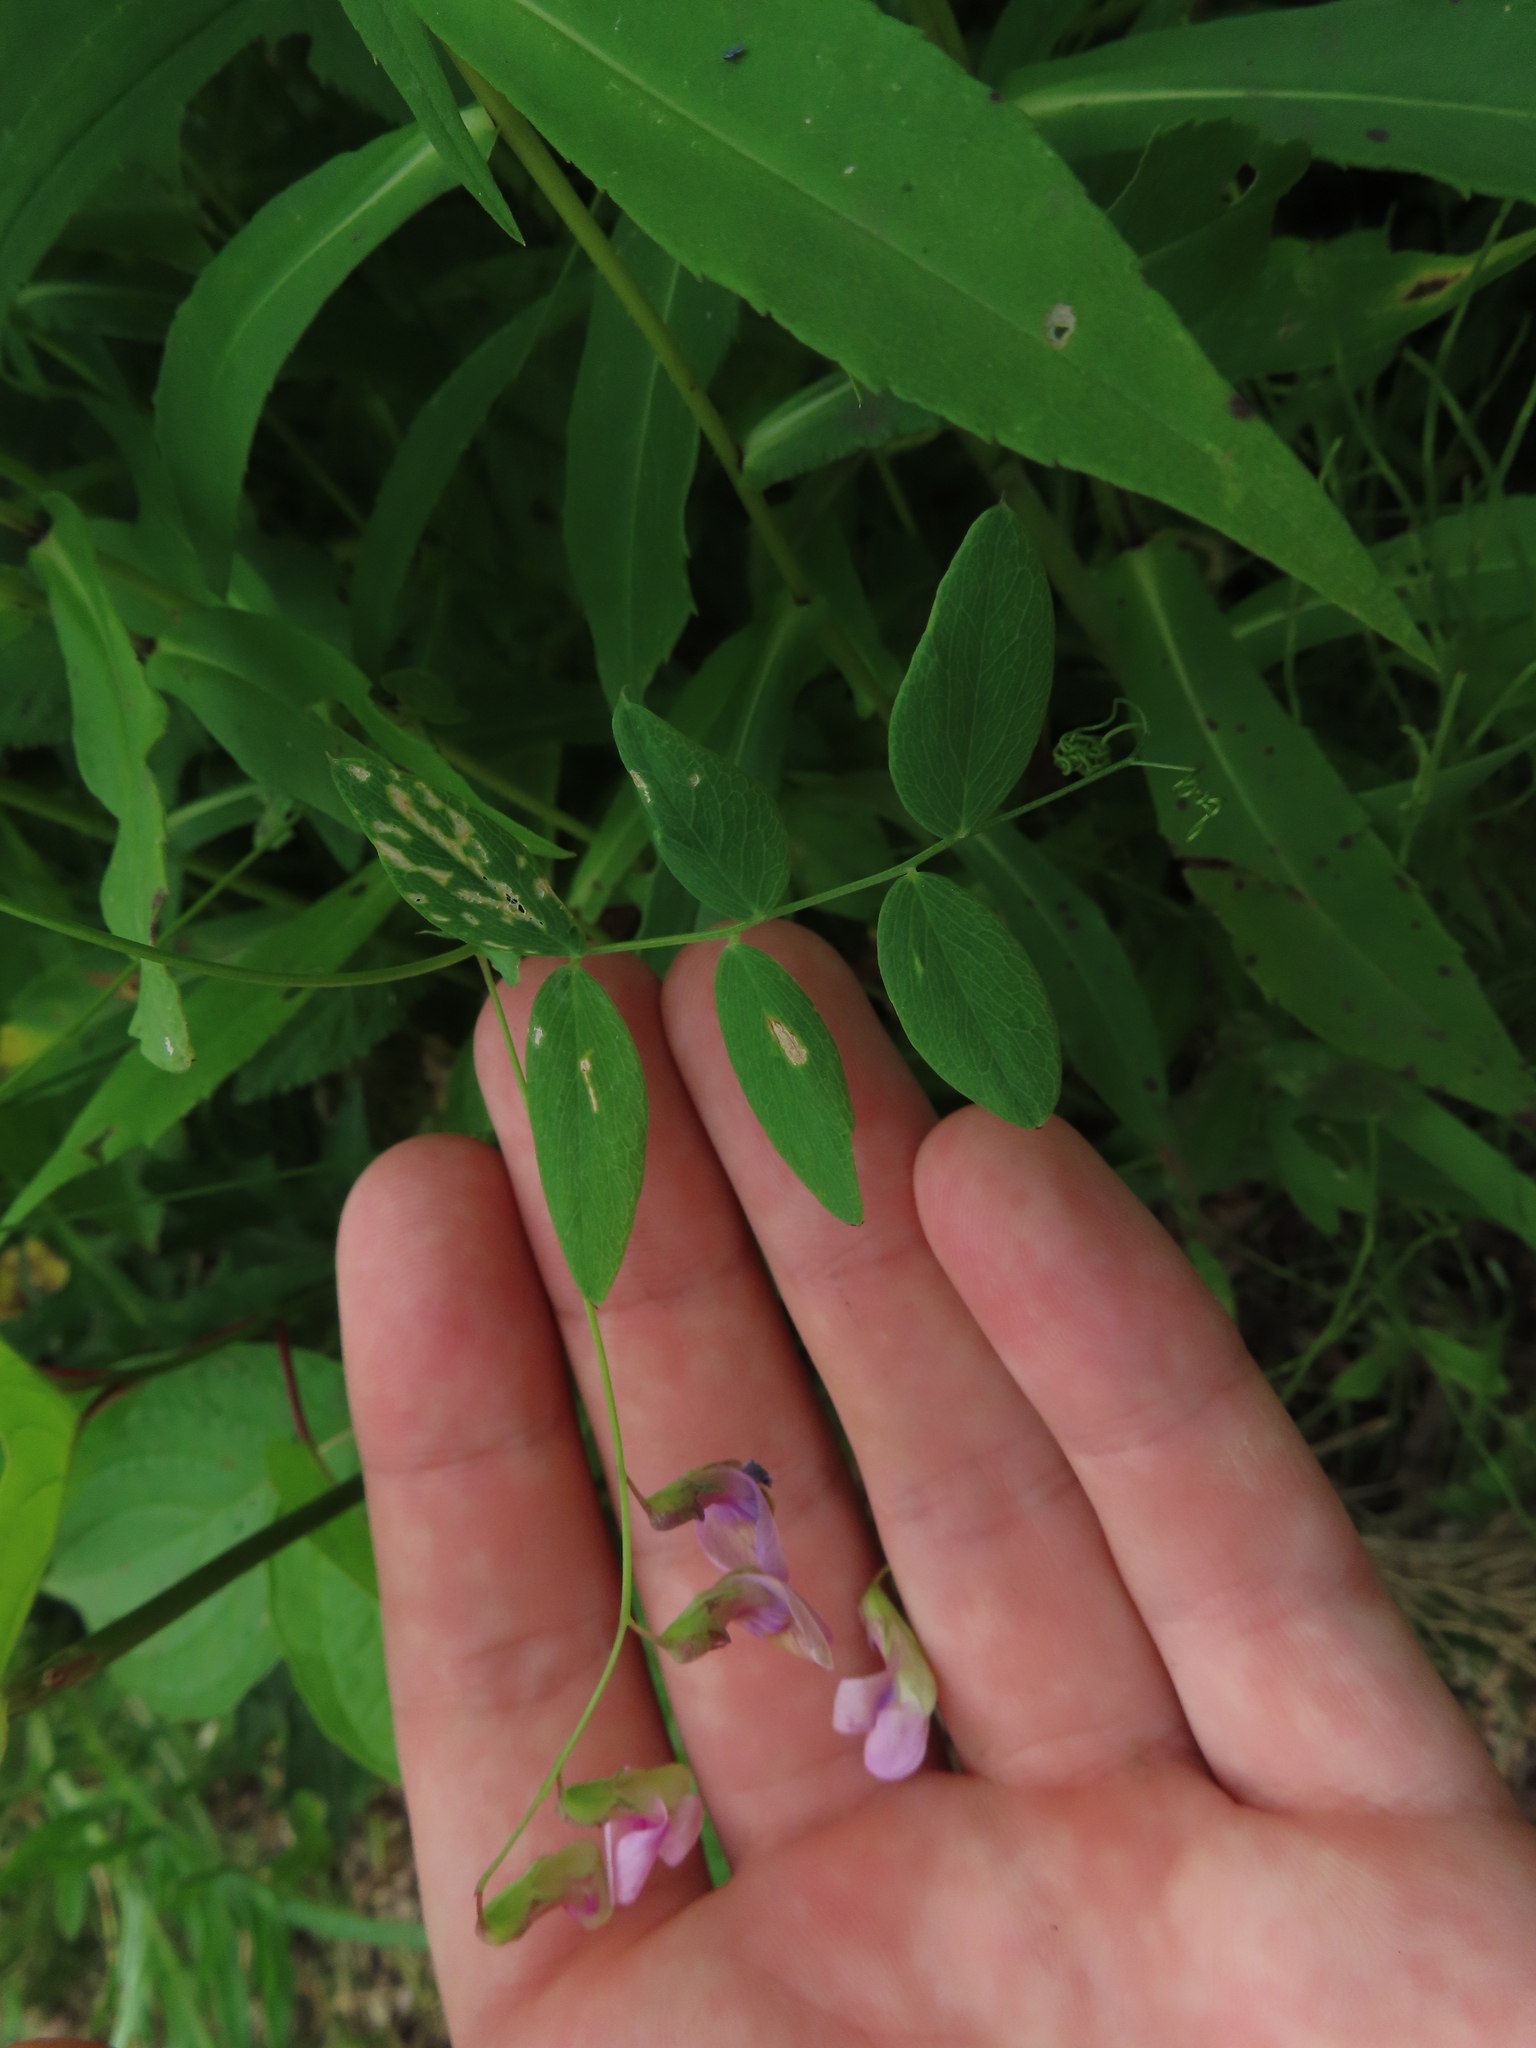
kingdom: Plantae
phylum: Tracheophyta
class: Magnoliopsida
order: Fabales
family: Fabaceae
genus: Lathyrus
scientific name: Lathyrus palustris
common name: Marsh pea
